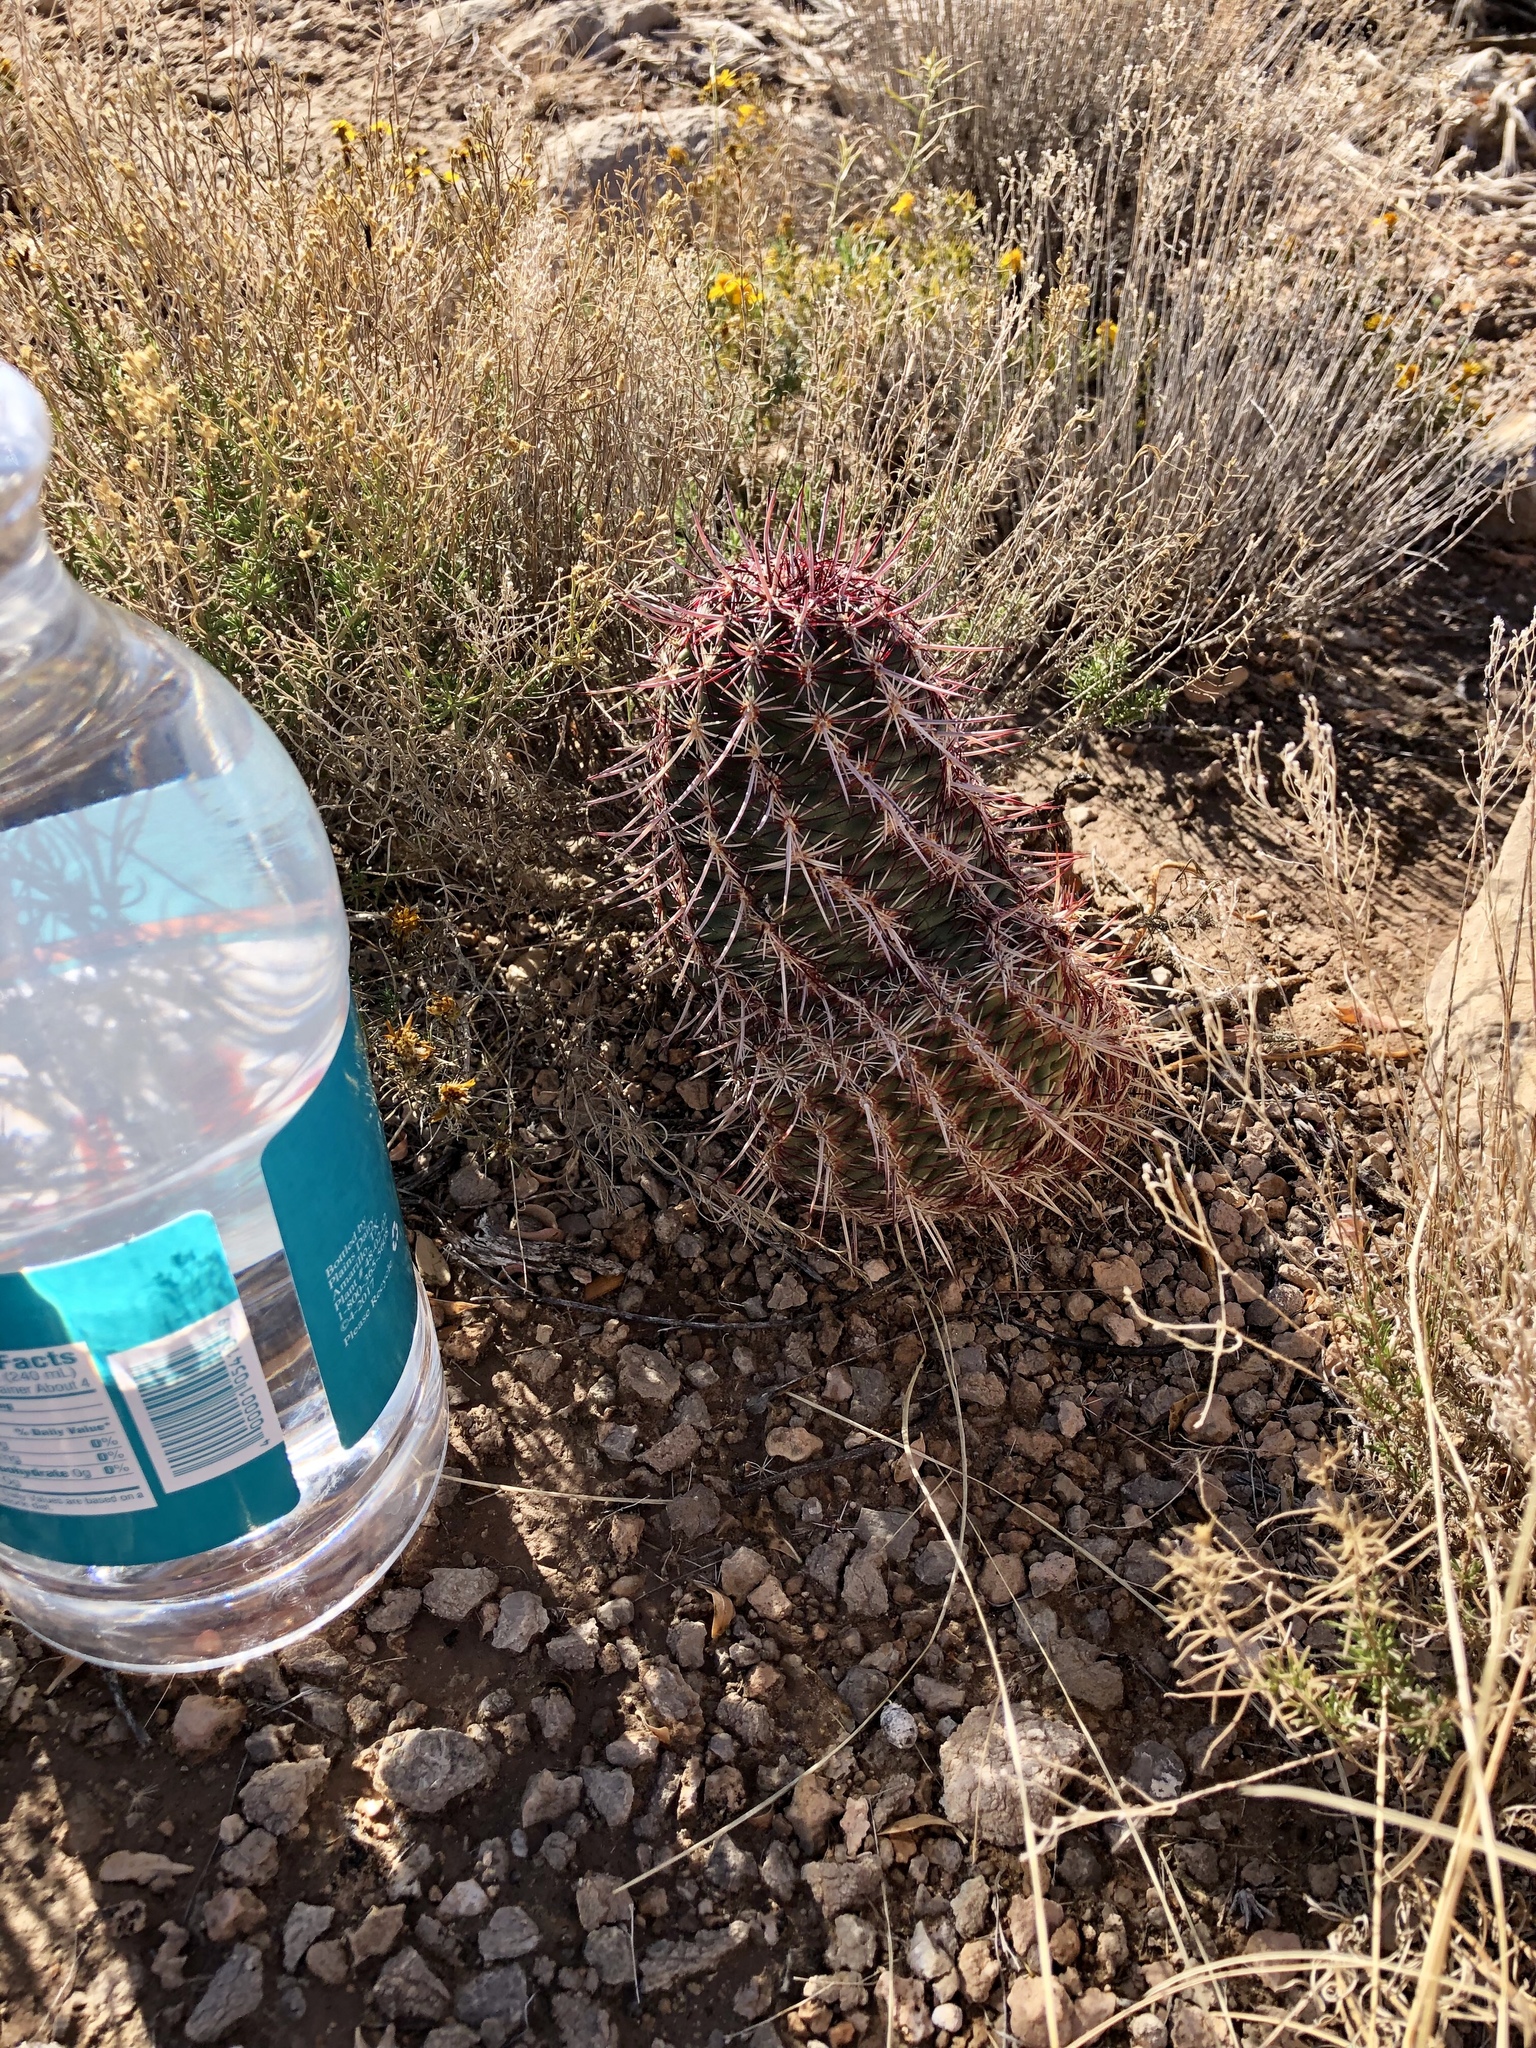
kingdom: Plantae
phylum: Tracheophyta
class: Magnoliopsida
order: Caryophyllales
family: Cactaceae
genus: Echinocereus
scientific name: Echinocereus viridiflorus
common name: Nylon hedgehog cactus
